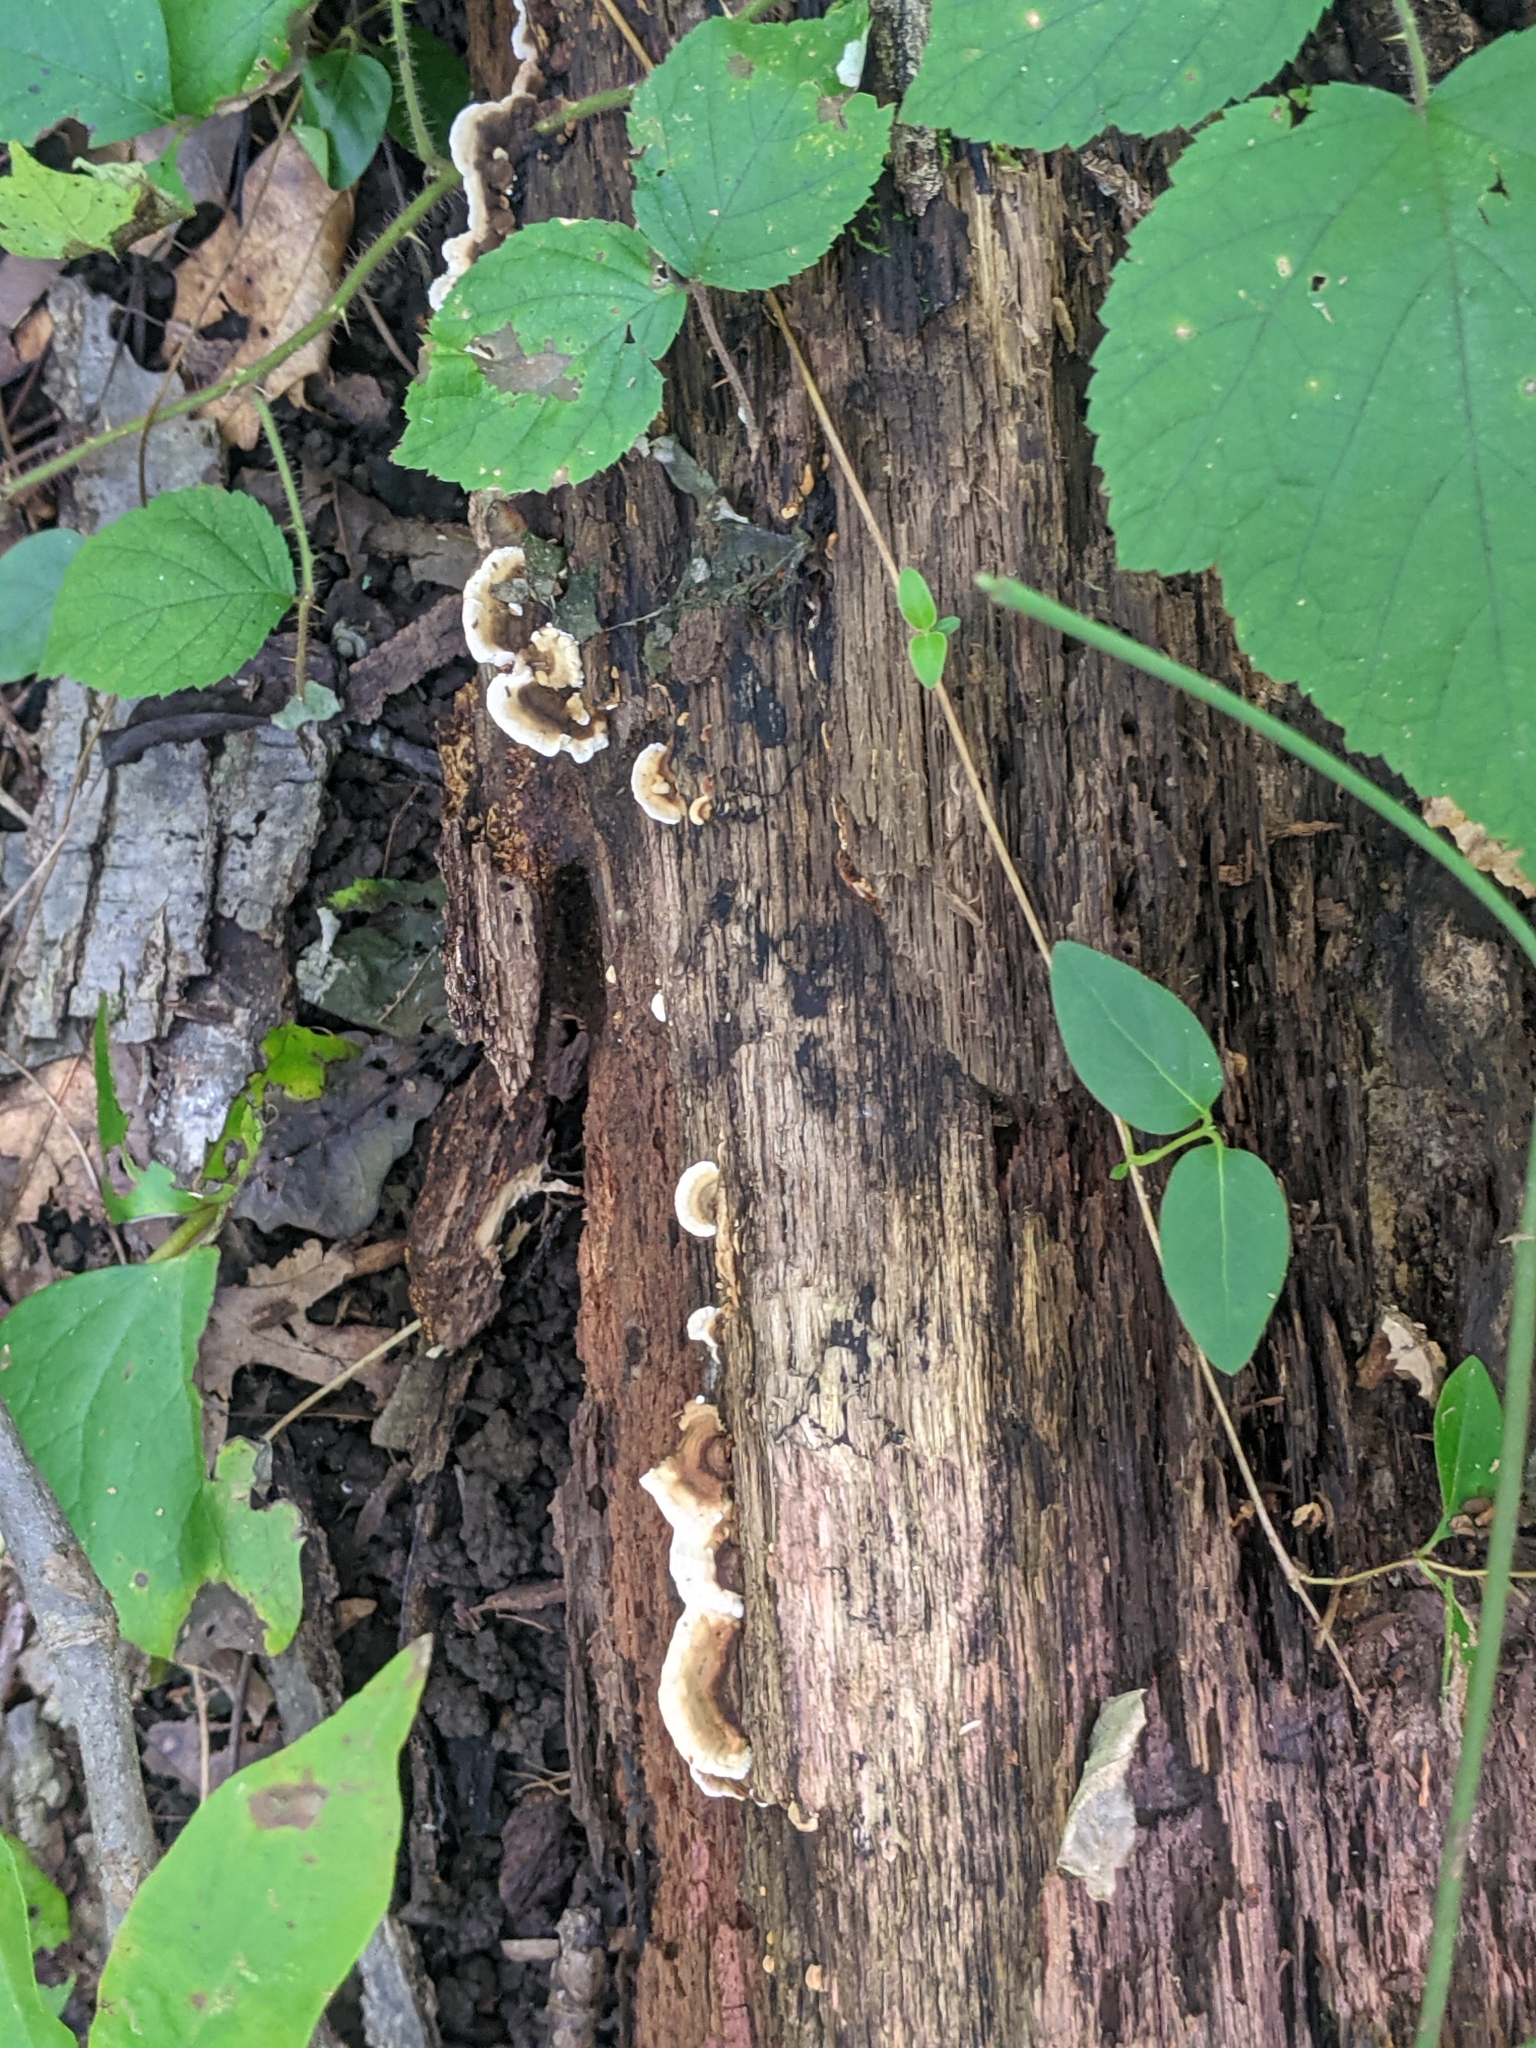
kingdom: Fungi
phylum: Basidiomycota
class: Agaricomycetes
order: Polyporales
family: Polyporaceae
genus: Daedaleopsis
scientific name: Daedaleopsis confragosa
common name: Blushing bracket
